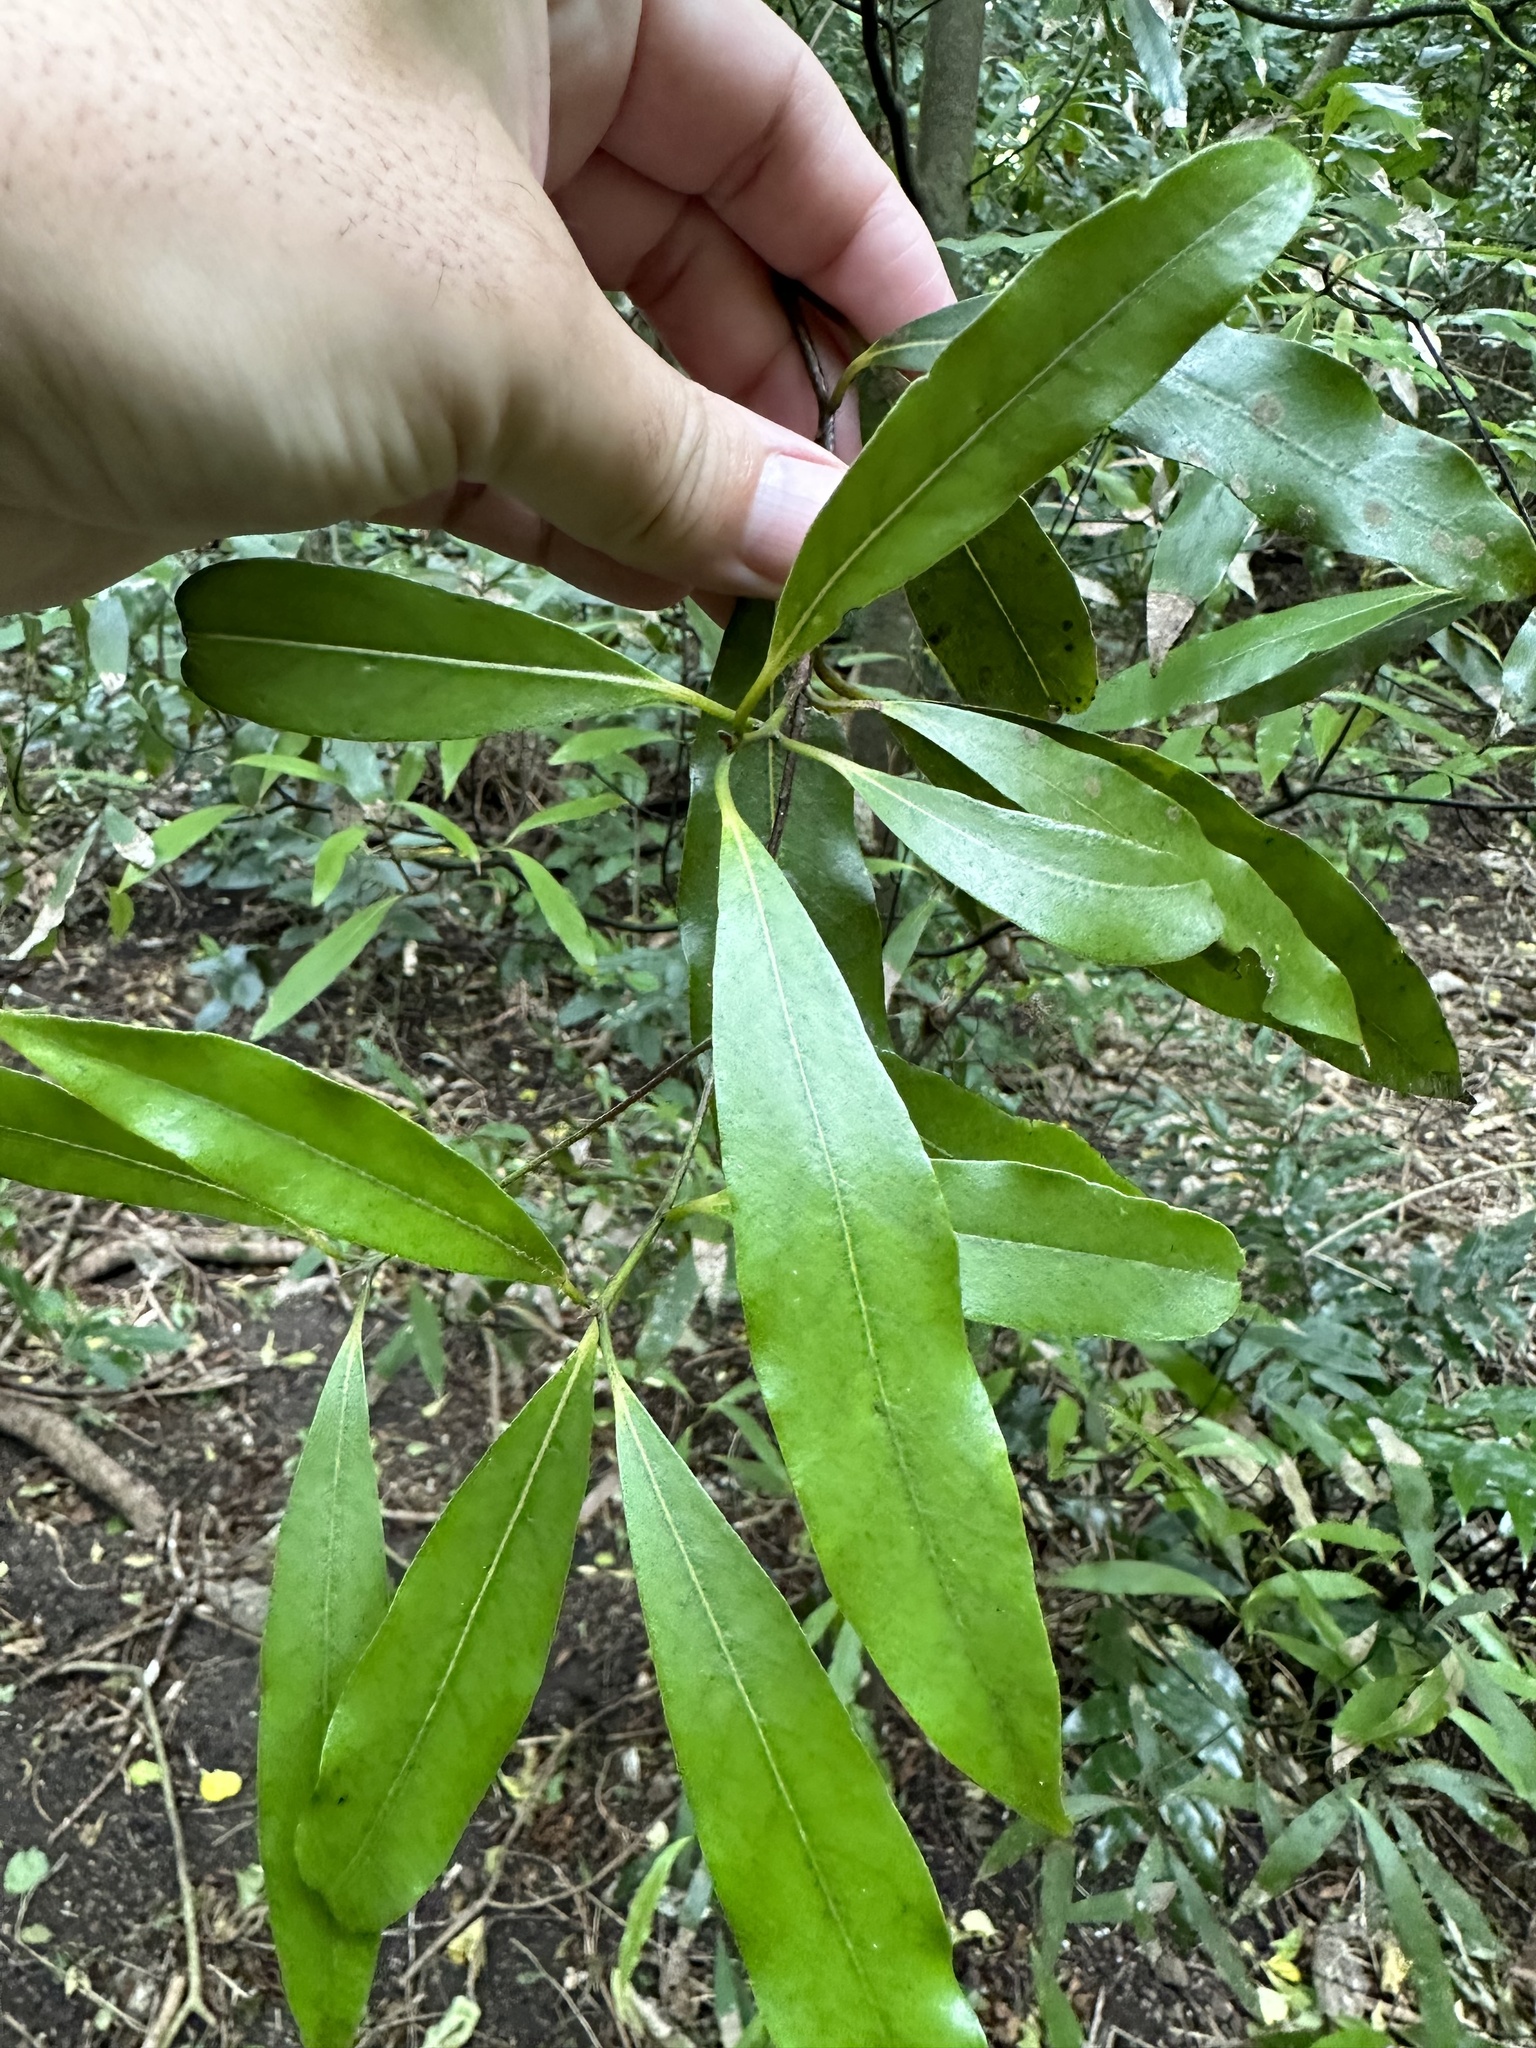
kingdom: Plantae
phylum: Tracheophyta
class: Magnoliopsida
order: Laurales
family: Lauraceae
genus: Beilschmiedia
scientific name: Beilschmiedia tawa
